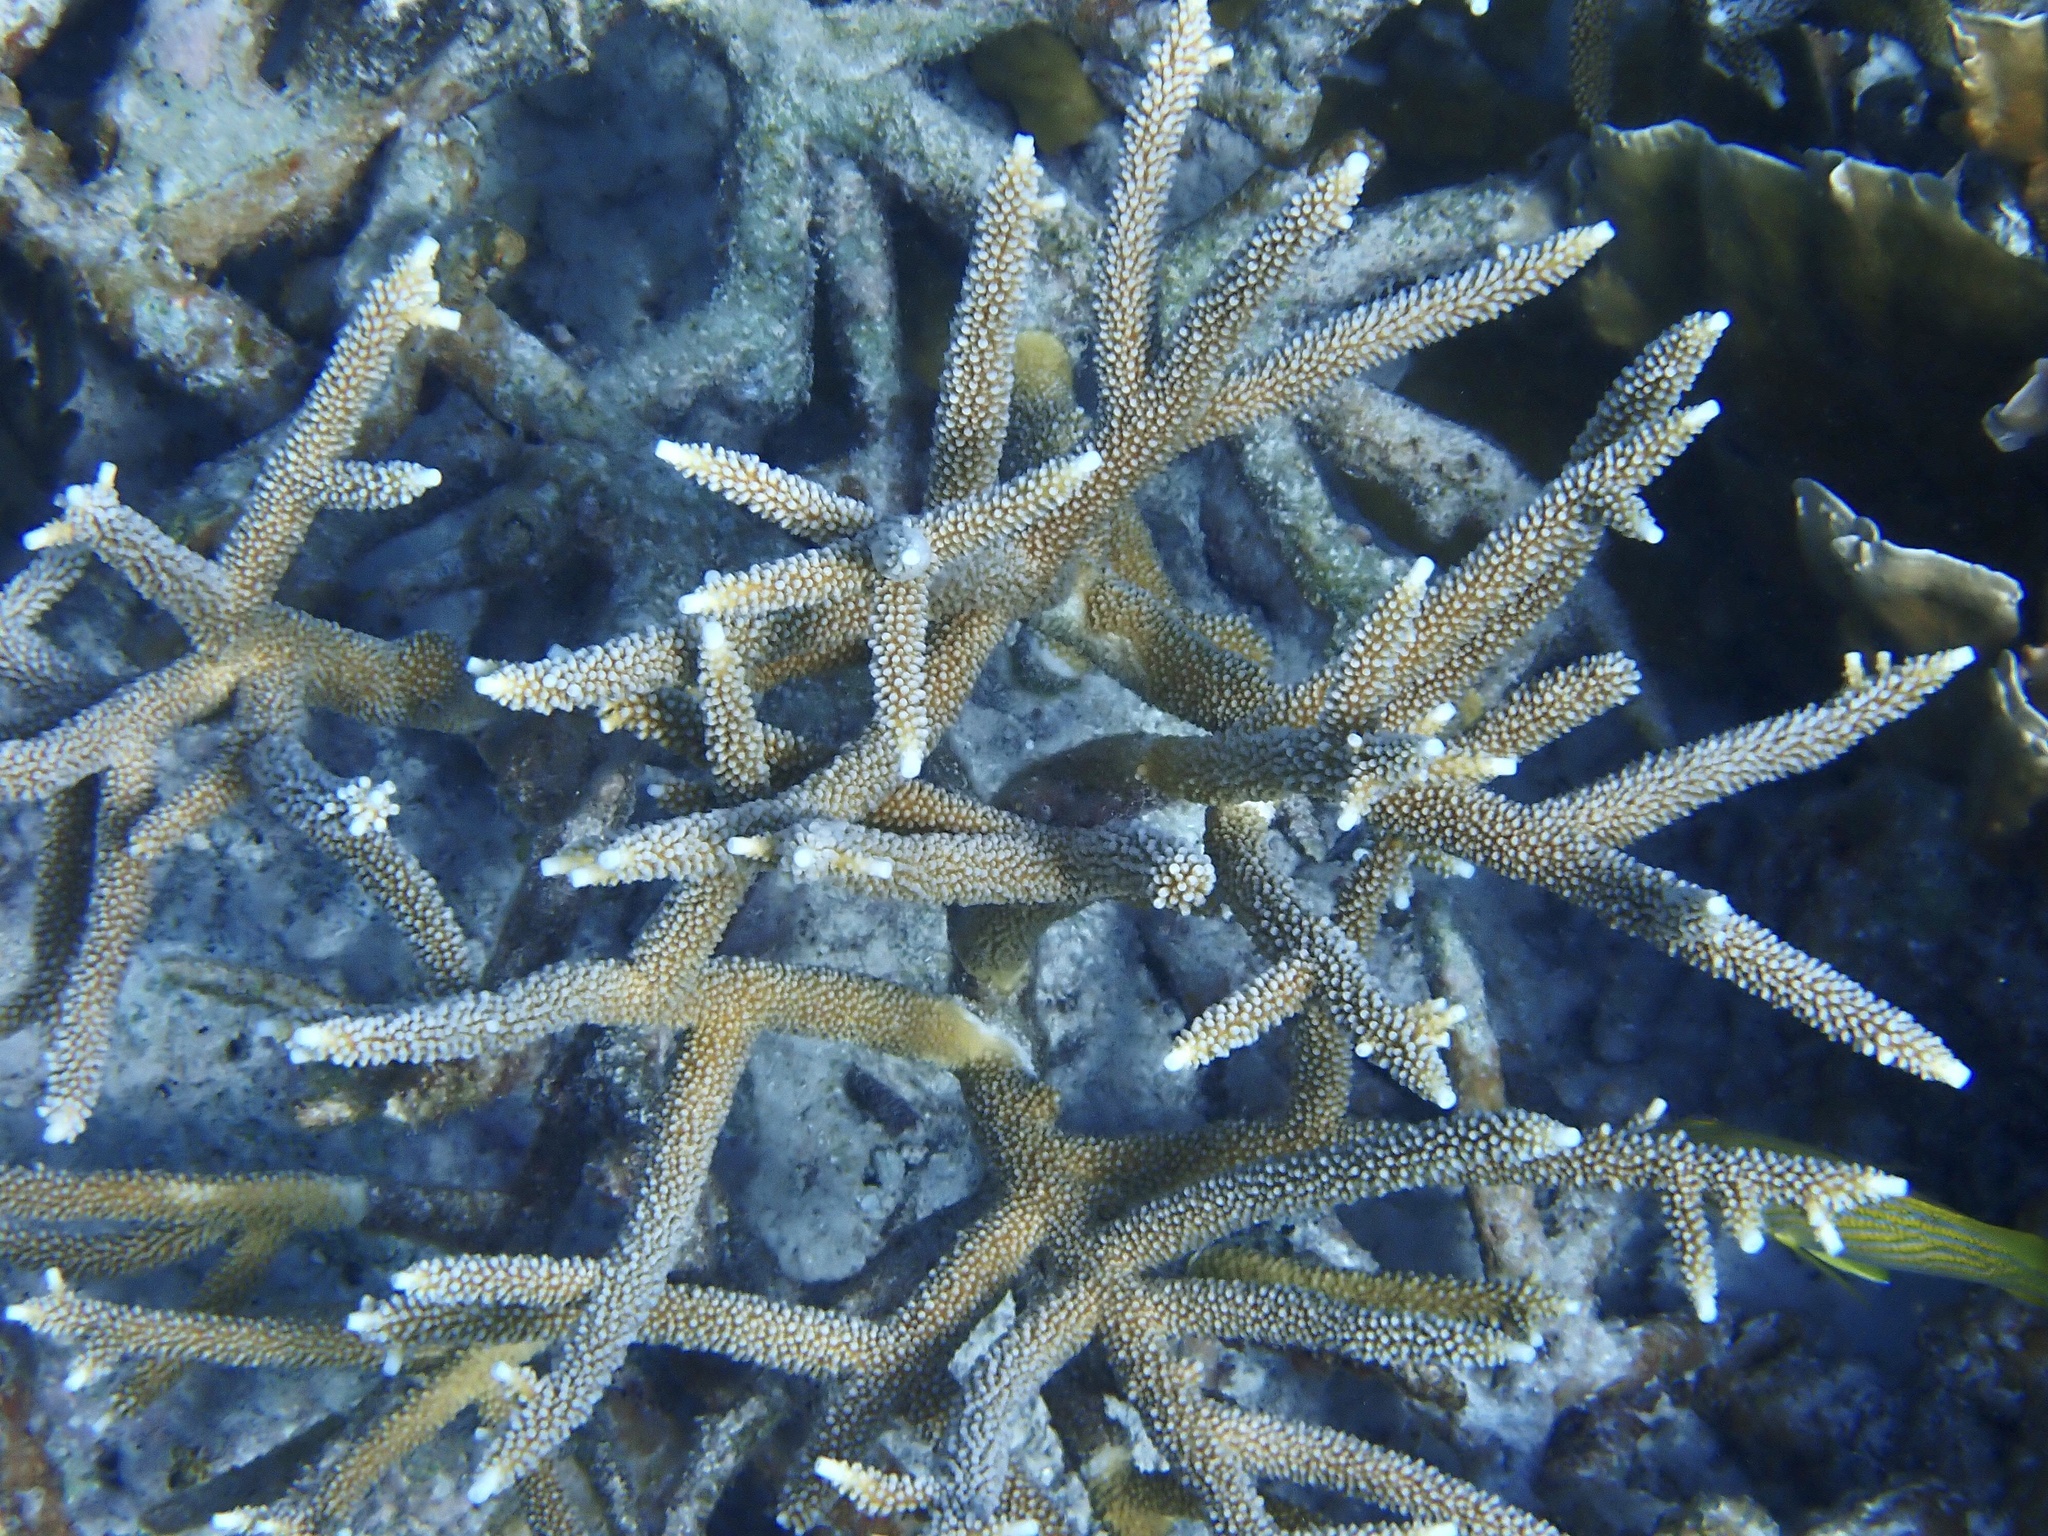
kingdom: Animalia
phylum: Cnidaria
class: Anthozoa
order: Scleractinia
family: Acroporidae
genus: Acropora
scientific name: Acropora cervicornis
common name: Staghorn coral
